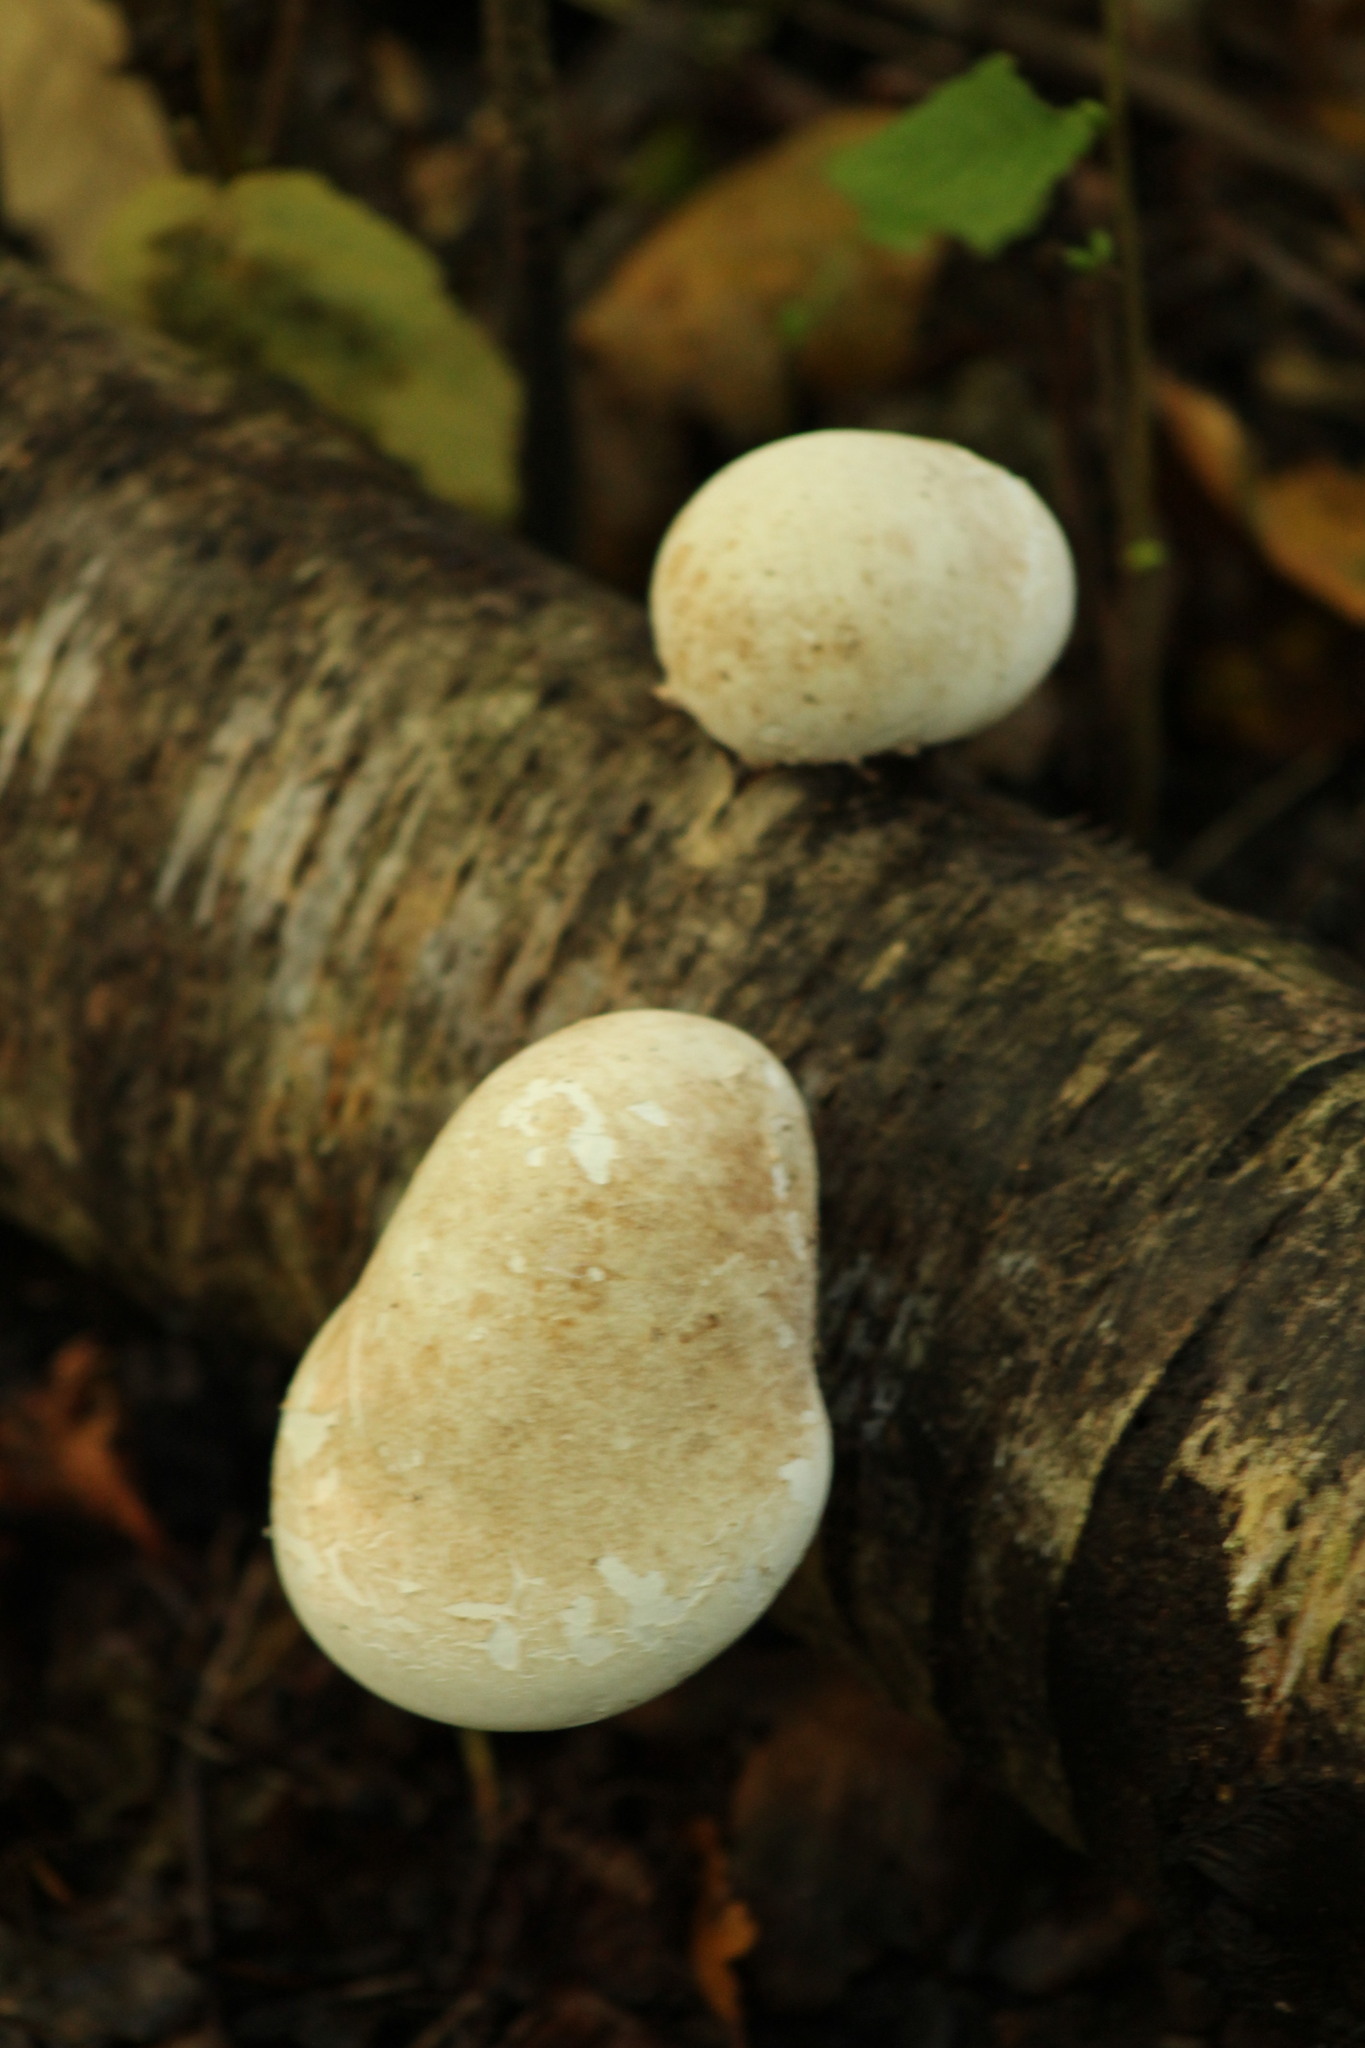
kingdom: Fungi
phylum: Basidiomycota
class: Agaricomycetes
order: Polyporales
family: Fomitopsidaceae
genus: Fomitopsis
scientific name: Fomitopsis betulina
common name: Birch polypore
